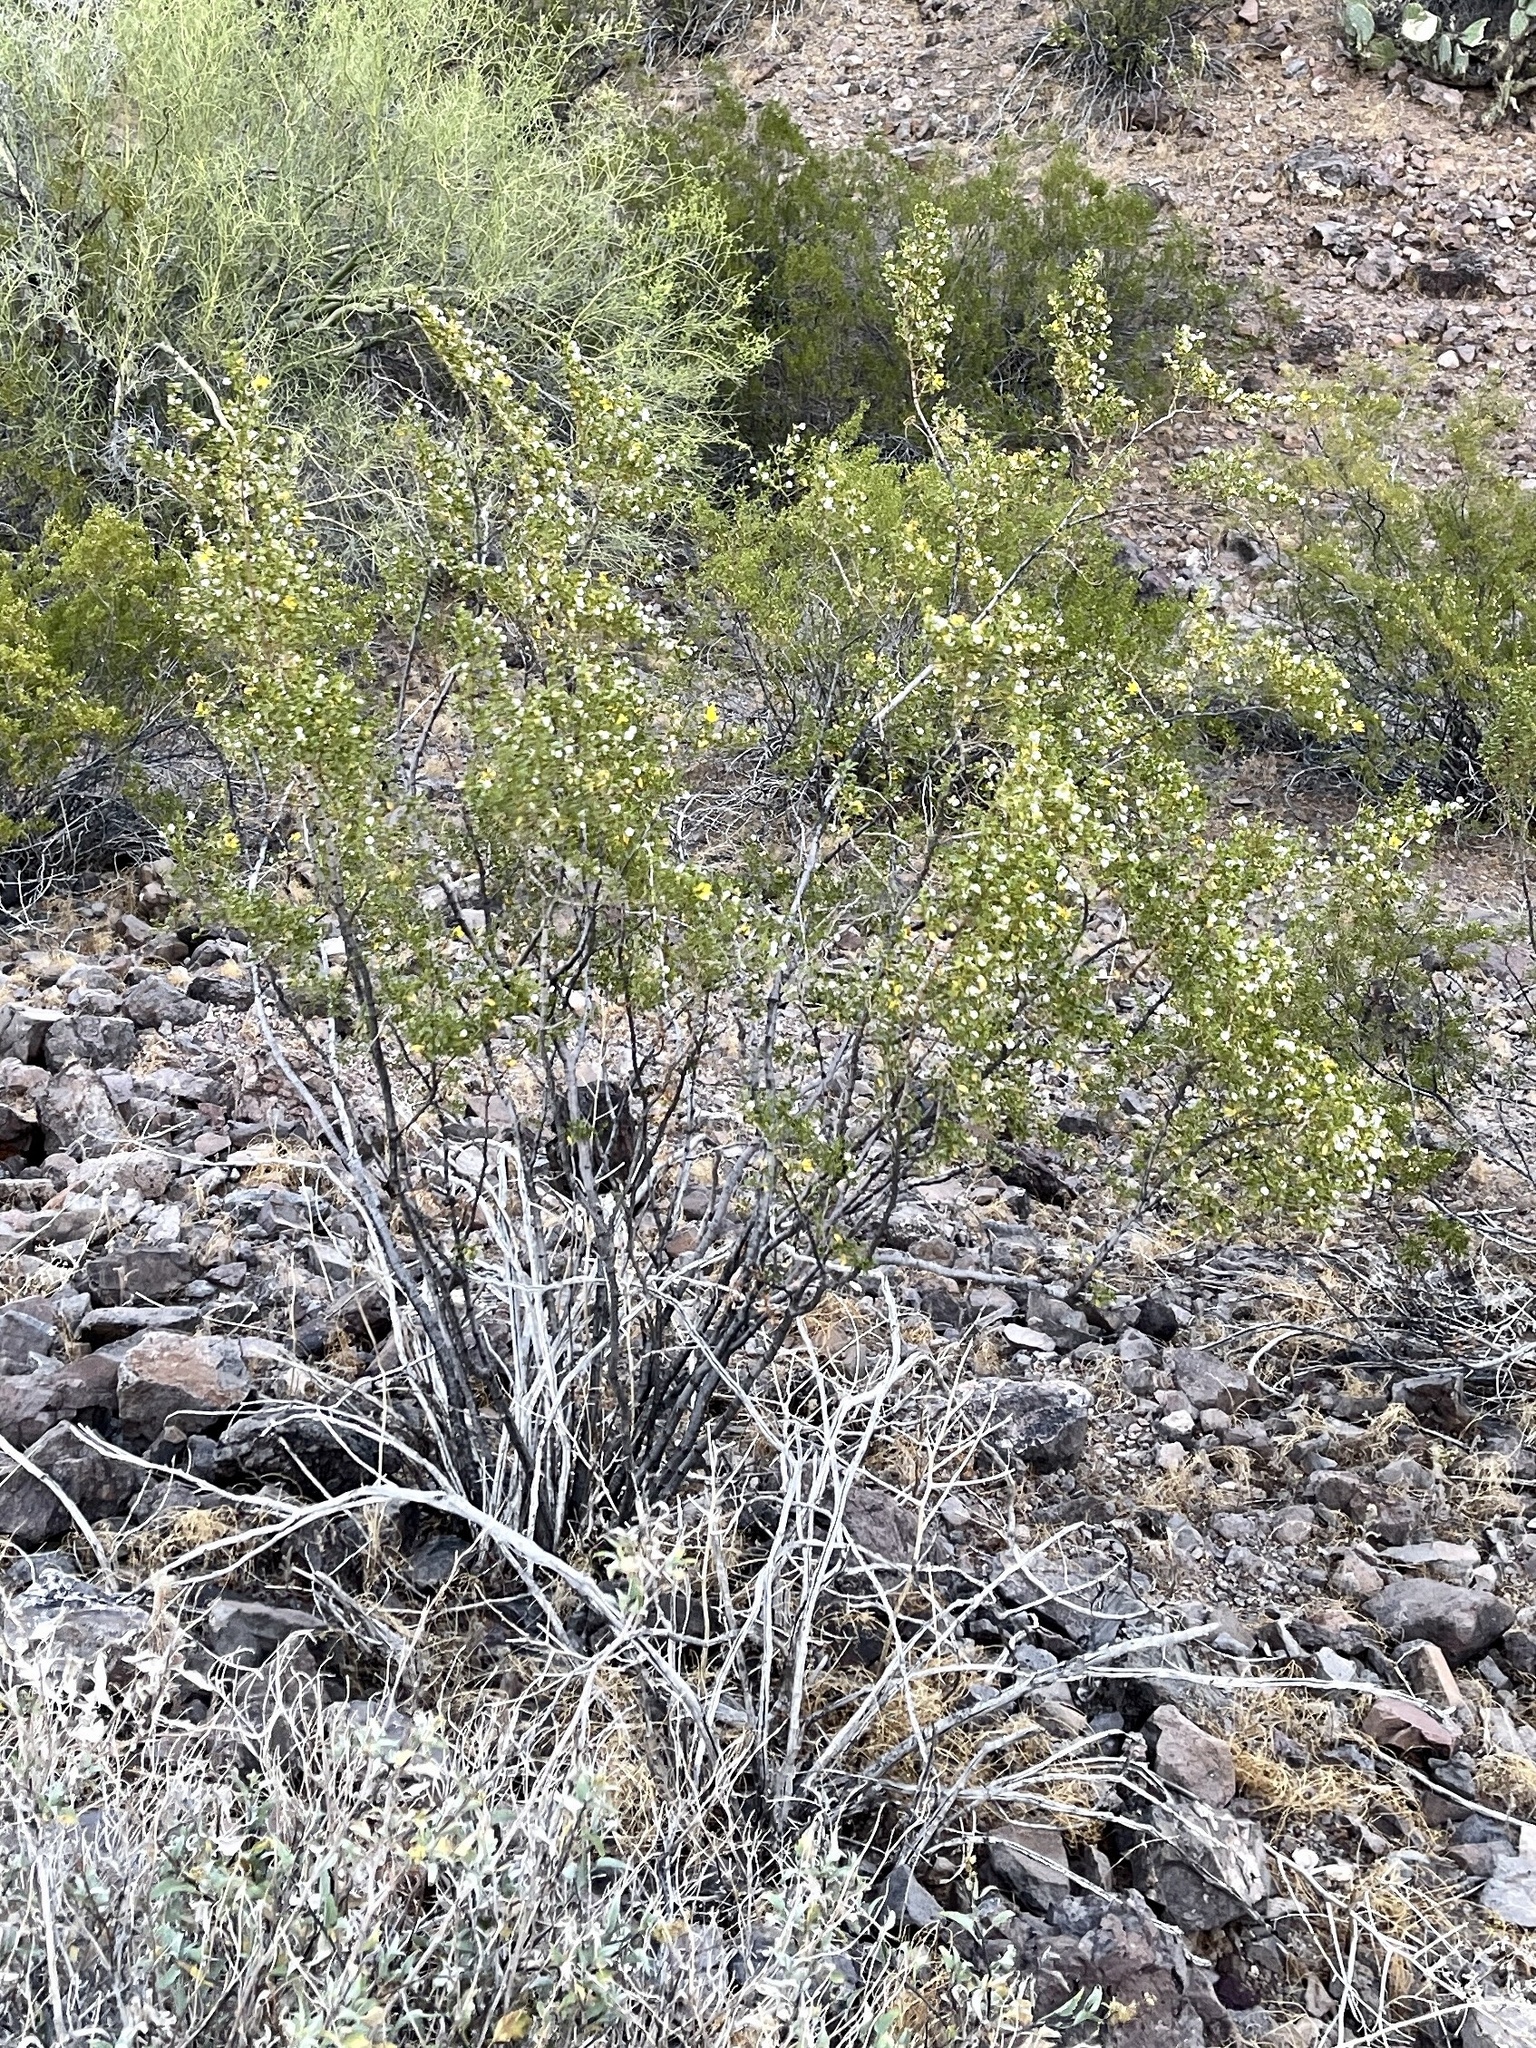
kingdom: Plantae
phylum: Tracheophyta
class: Magnoliopsida
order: Zygophyllales
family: Zygophyllaceae
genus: Larrea
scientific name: Larrea tridentata
